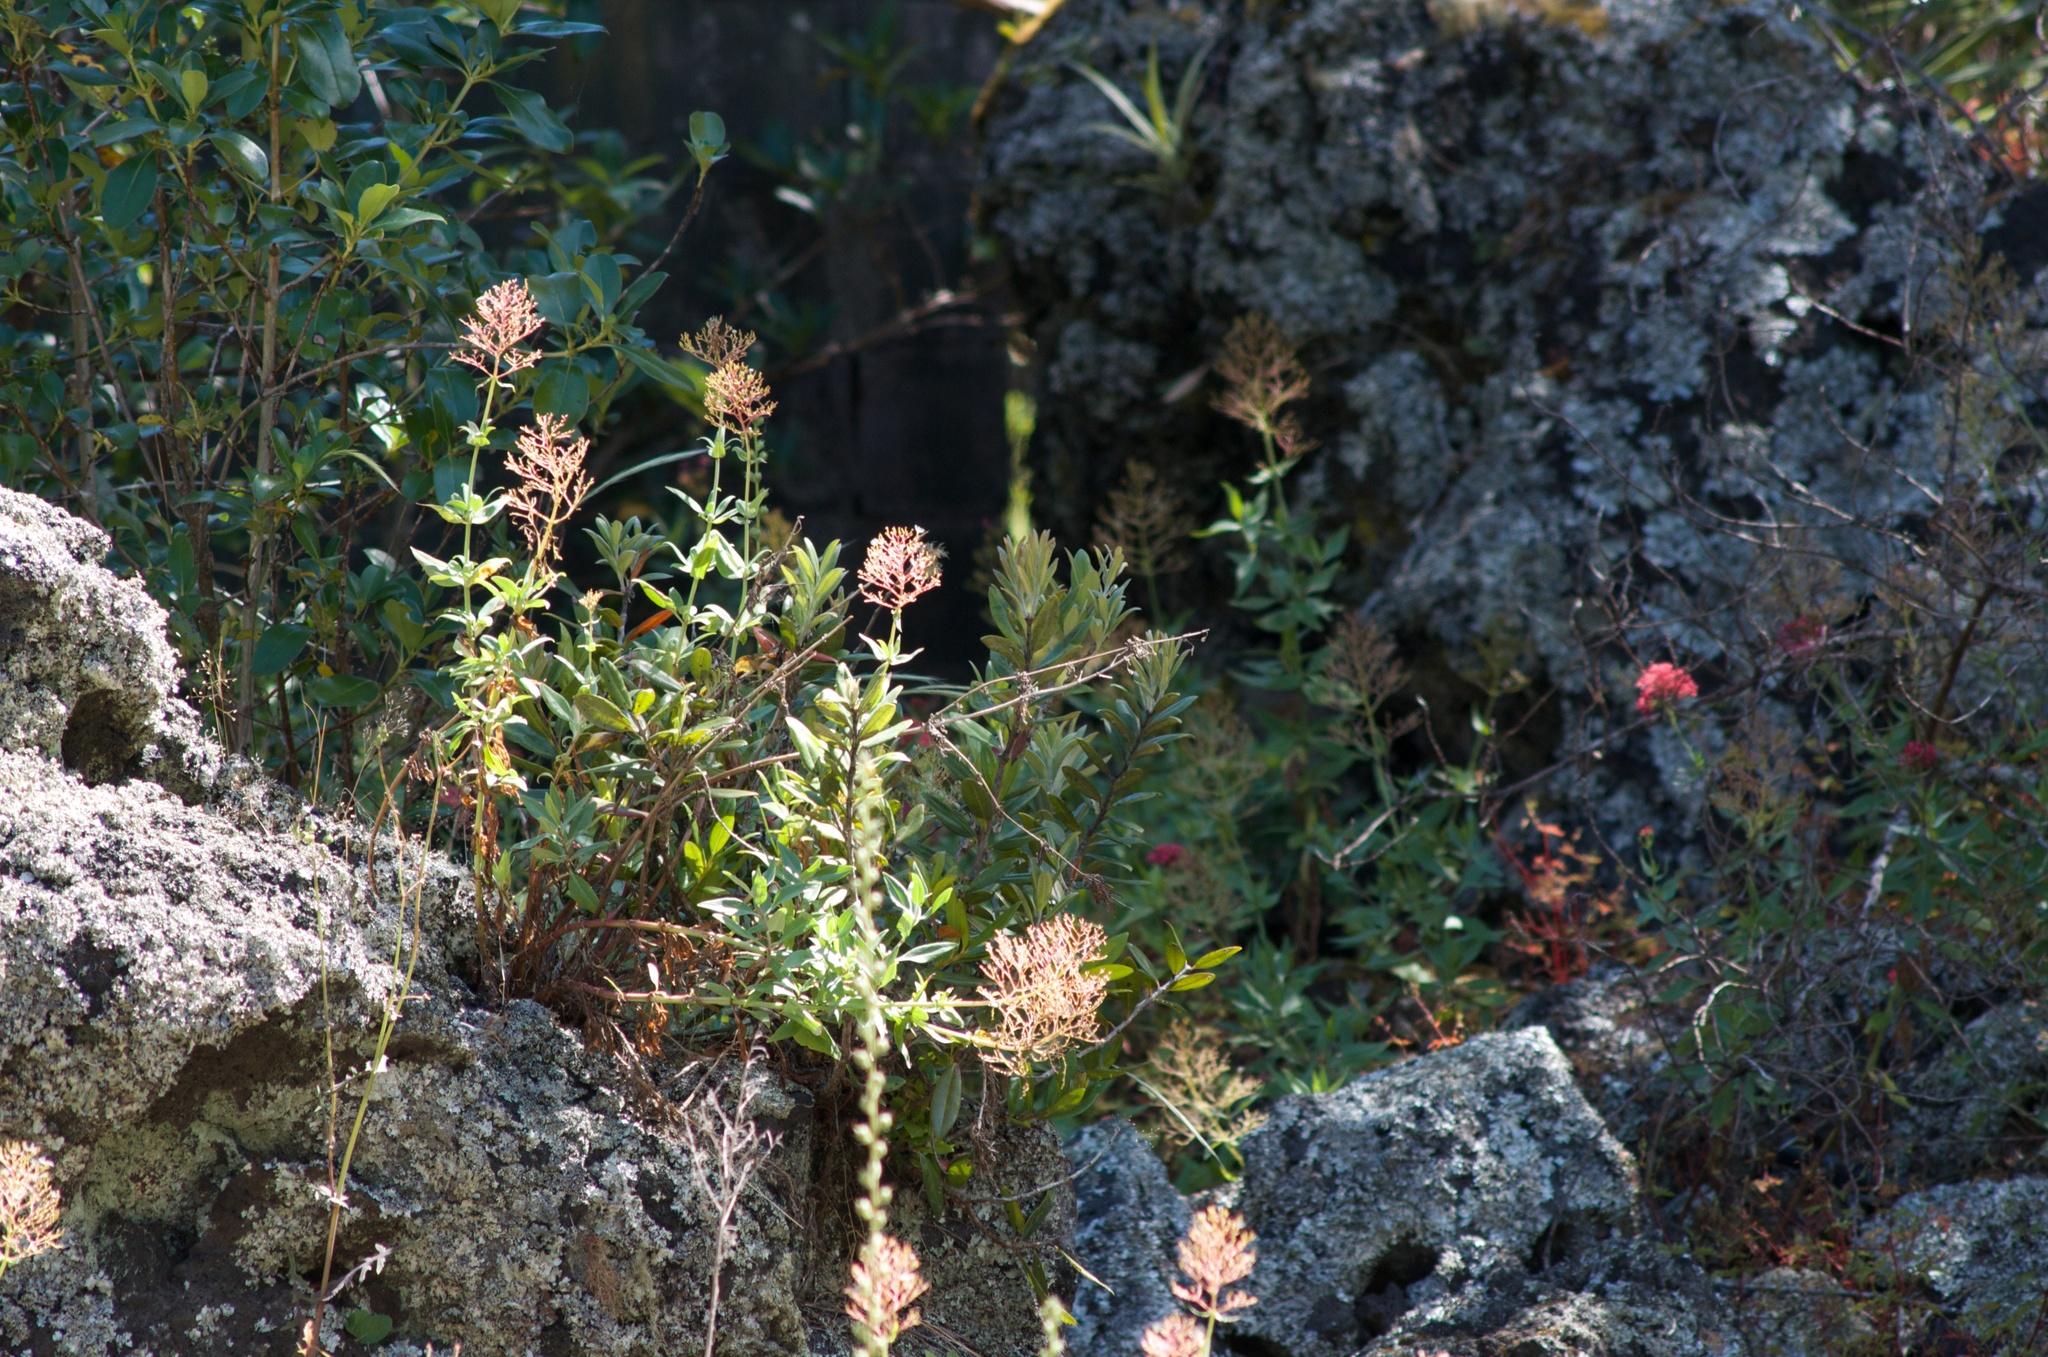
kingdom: Plantae
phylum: Tracheophyta
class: Magnoliopsida
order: Dipsacales
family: Caprifoliaceae
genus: Centranthus
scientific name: Centranthus ruber
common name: Red valerian
